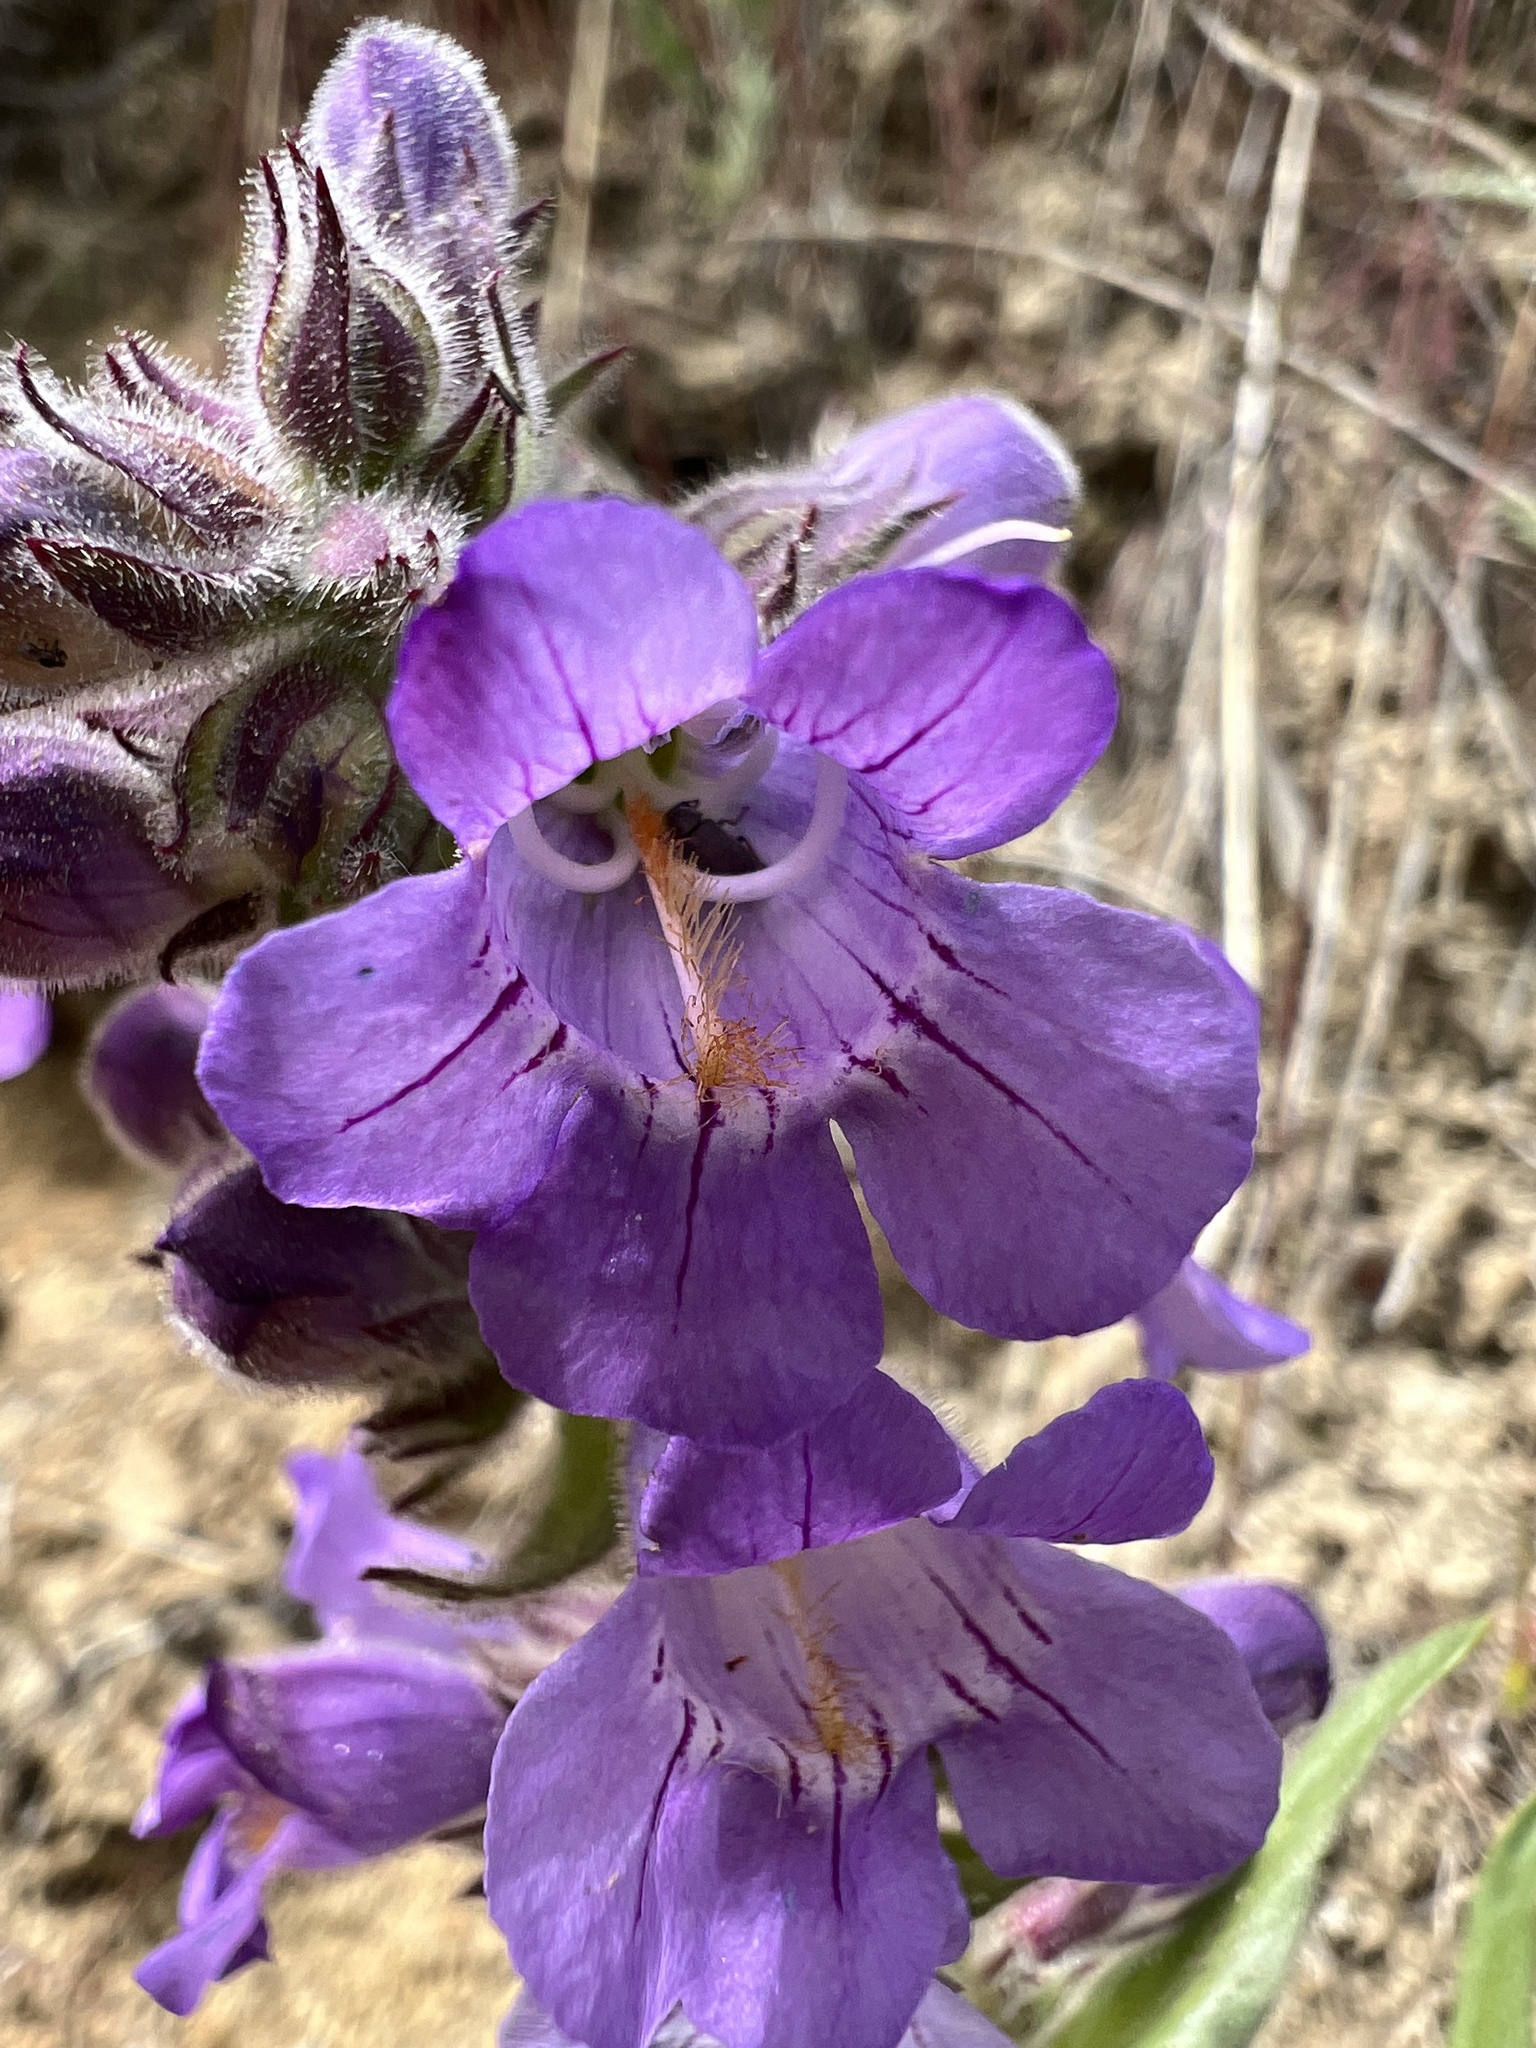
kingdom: Plantae
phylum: Tracheophyta
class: Magnoliopsida
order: Lamiales
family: Plantaginaceae
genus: Penstemon
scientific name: Penstemon eriantherus
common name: Crested beardtongue
